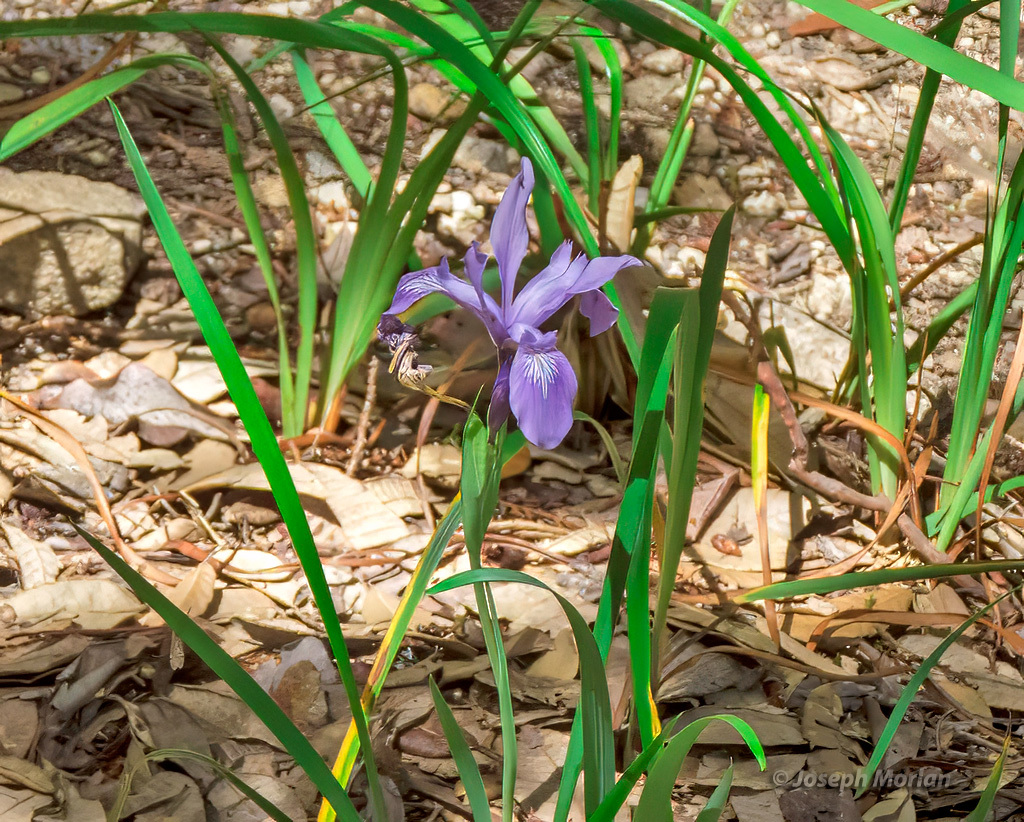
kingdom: Plantae
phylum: Tracheophyta
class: Liliopsida
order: Asparagales
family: Iridaceae
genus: Iris
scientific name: Iris douglasiana
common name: Marin iris
